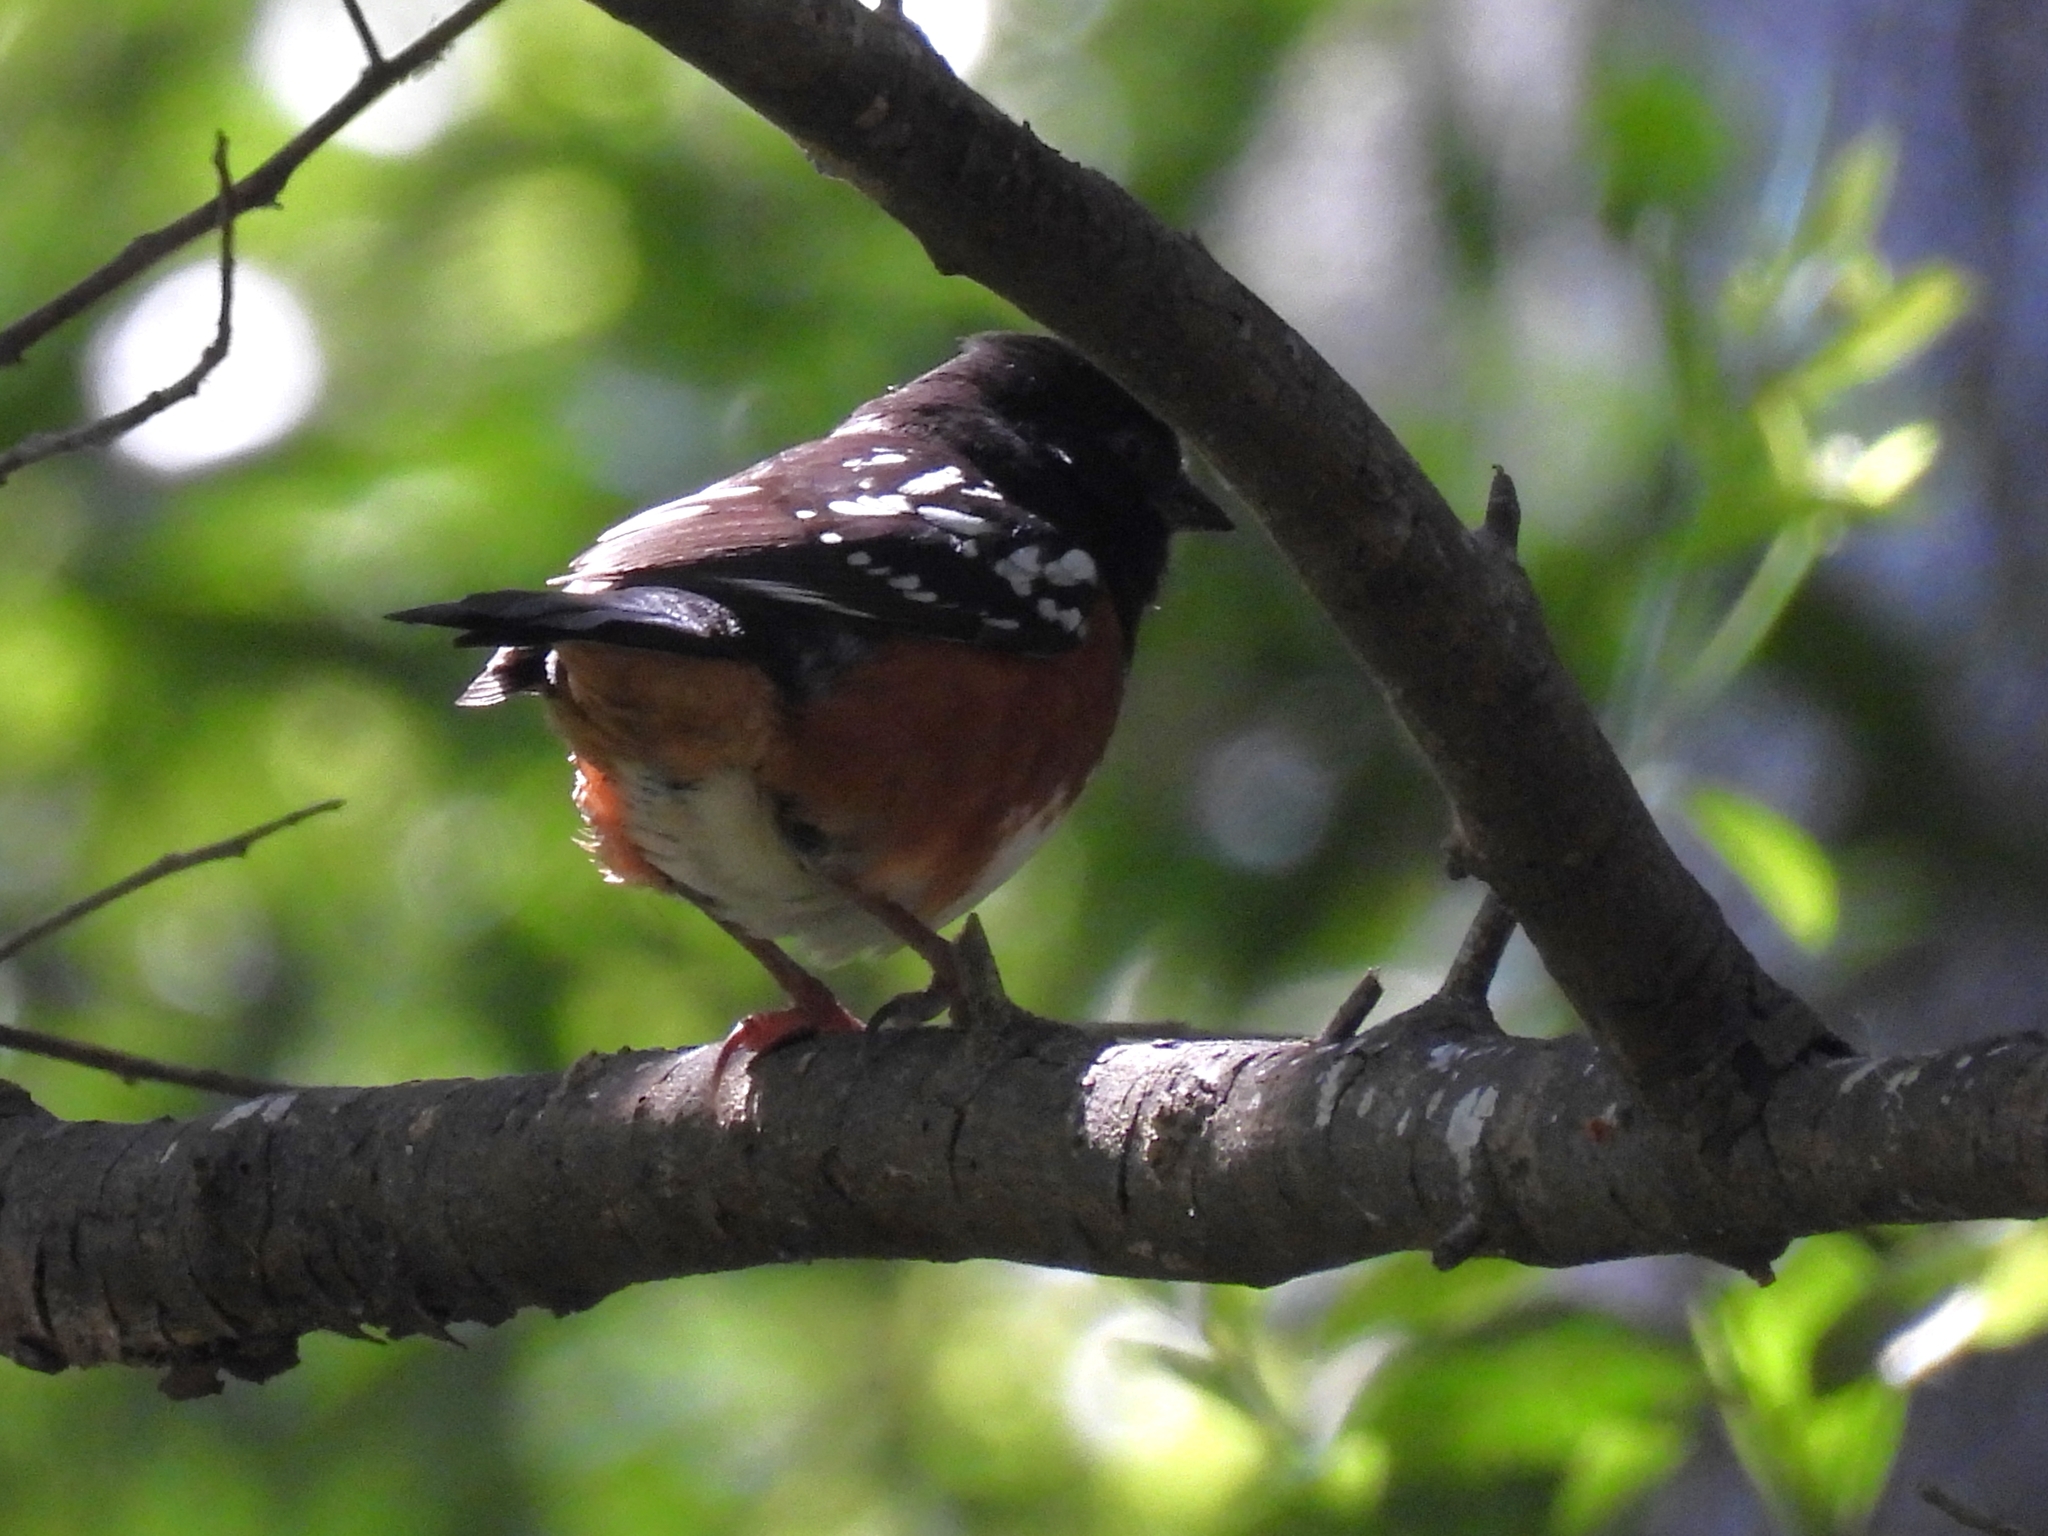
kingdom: Animalia
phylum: Chordata
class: Aves
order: Passeriformes
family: Passerellidae
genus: Pipilo
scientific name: Pipilo maculatus
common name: Spotted towhee
